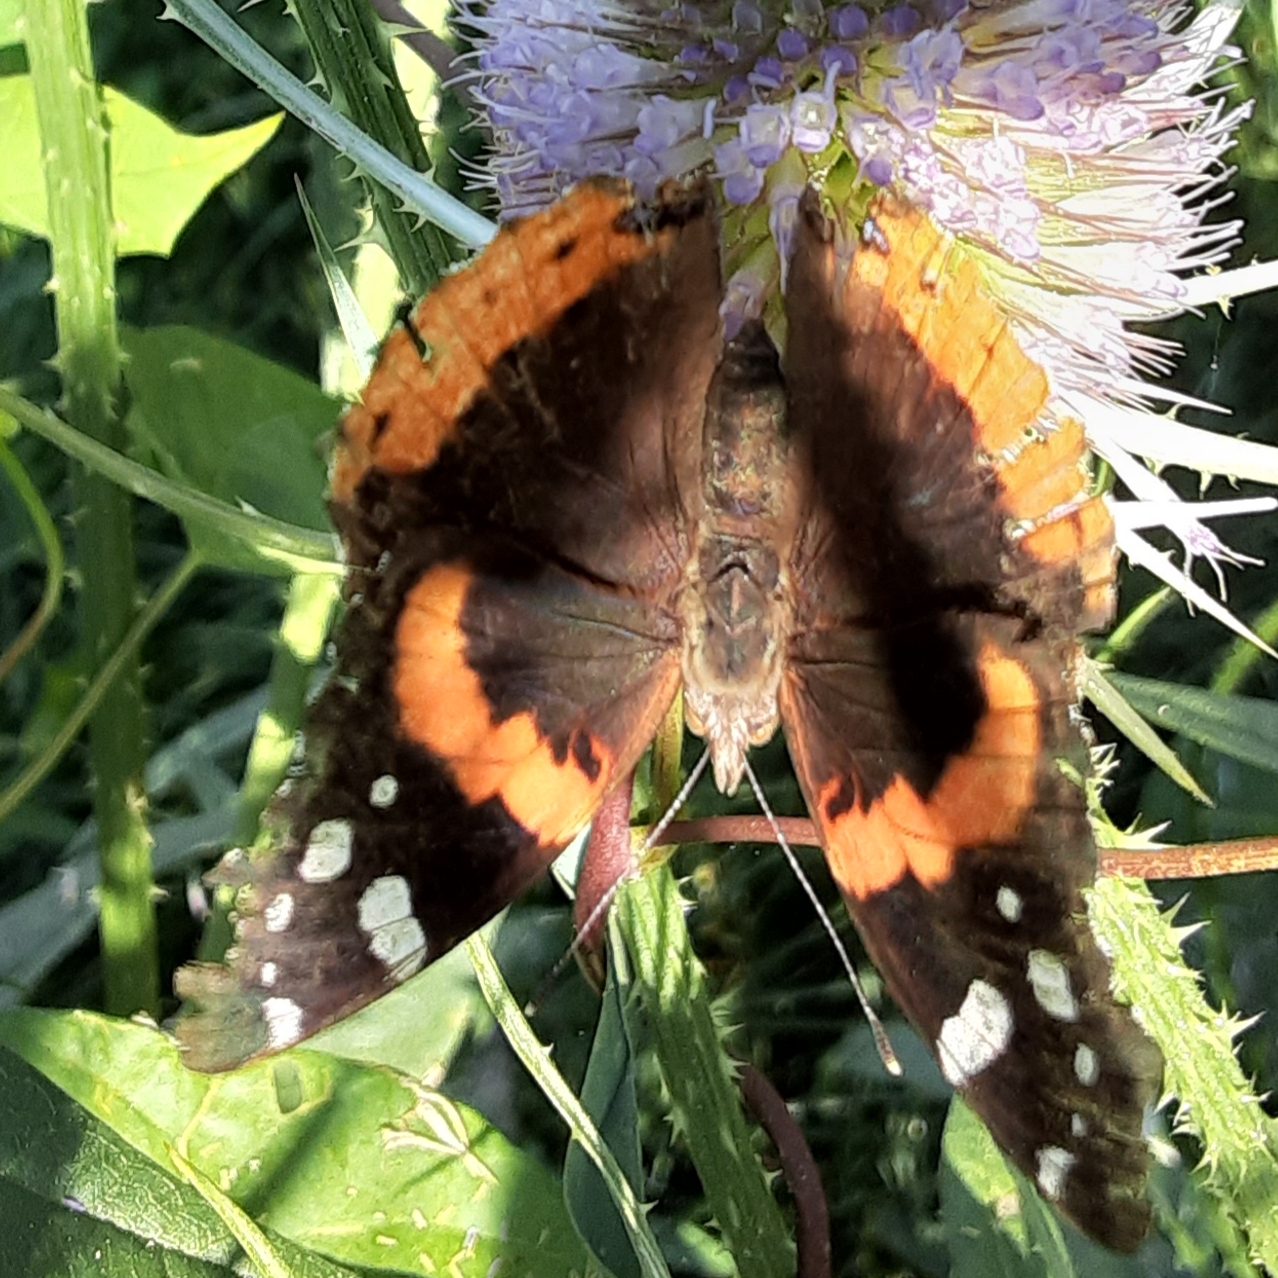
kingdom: Animalia
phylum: Arthropoda
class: Insecta
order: Lepidoptera
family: Nymphalidae
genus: Vanessa
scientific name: Vanessa atalanta
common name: Red admiral
